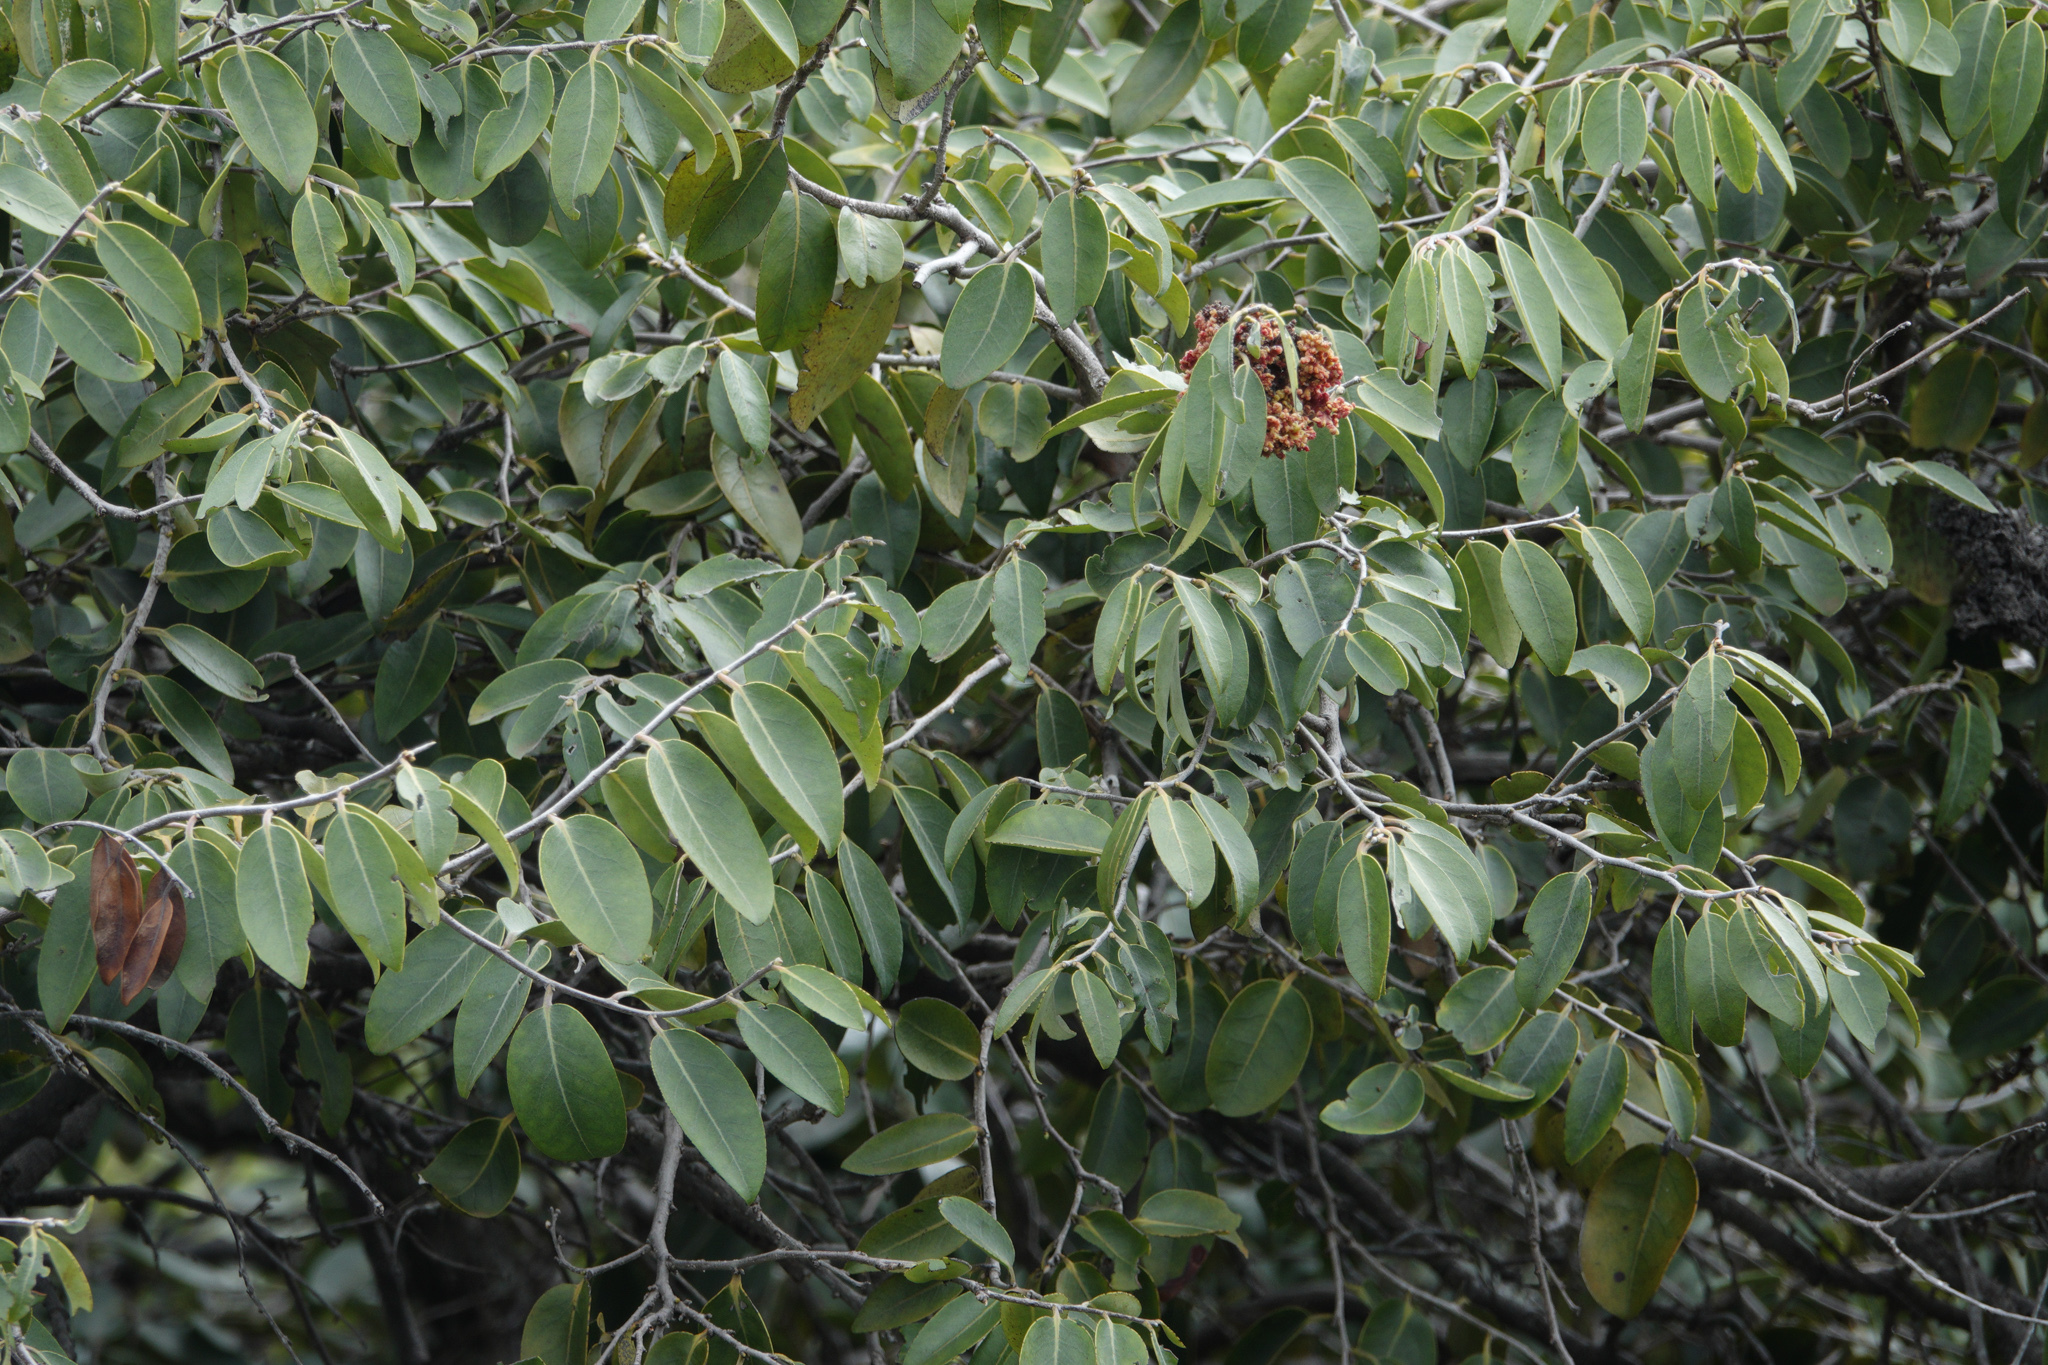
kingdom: Plantae
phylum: Tracheophyta
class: Magnoliopsida
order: Ericales
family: Ebenaceae
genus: Diospyros
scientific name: Diospyros sandwicensis
